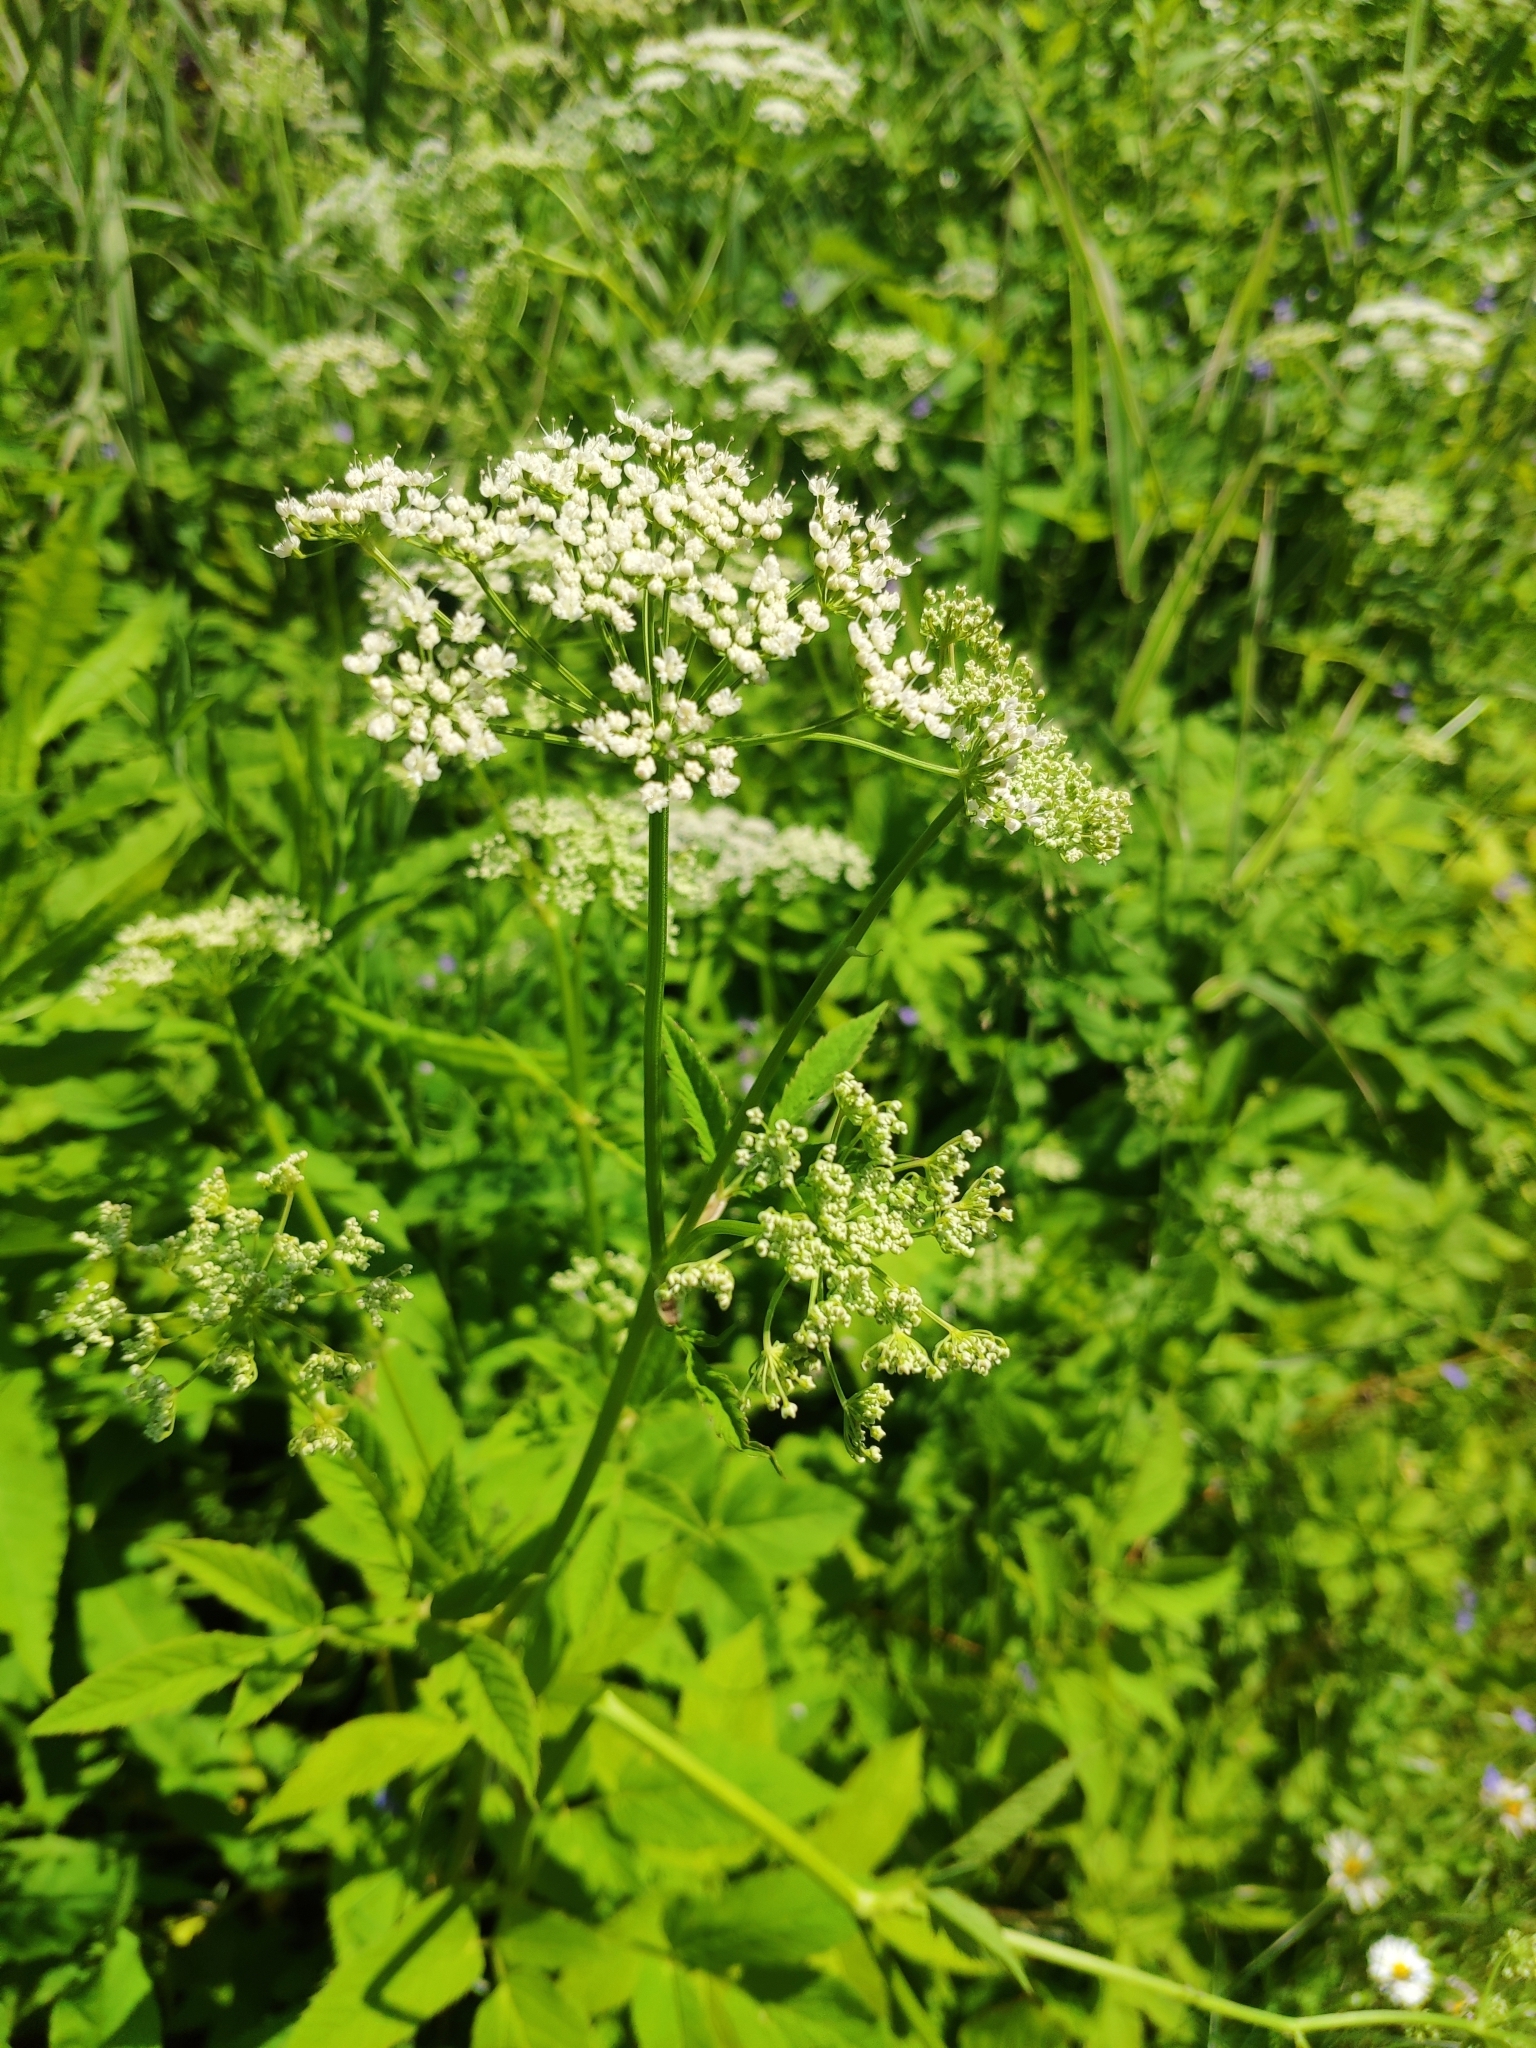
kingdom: Plantae
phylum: Tracheophyta
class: Magnoliopsida
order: Apiales
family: Apiaceae
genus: Aegopodium
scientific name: Aegopodium podagraria
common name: Ground-elder
